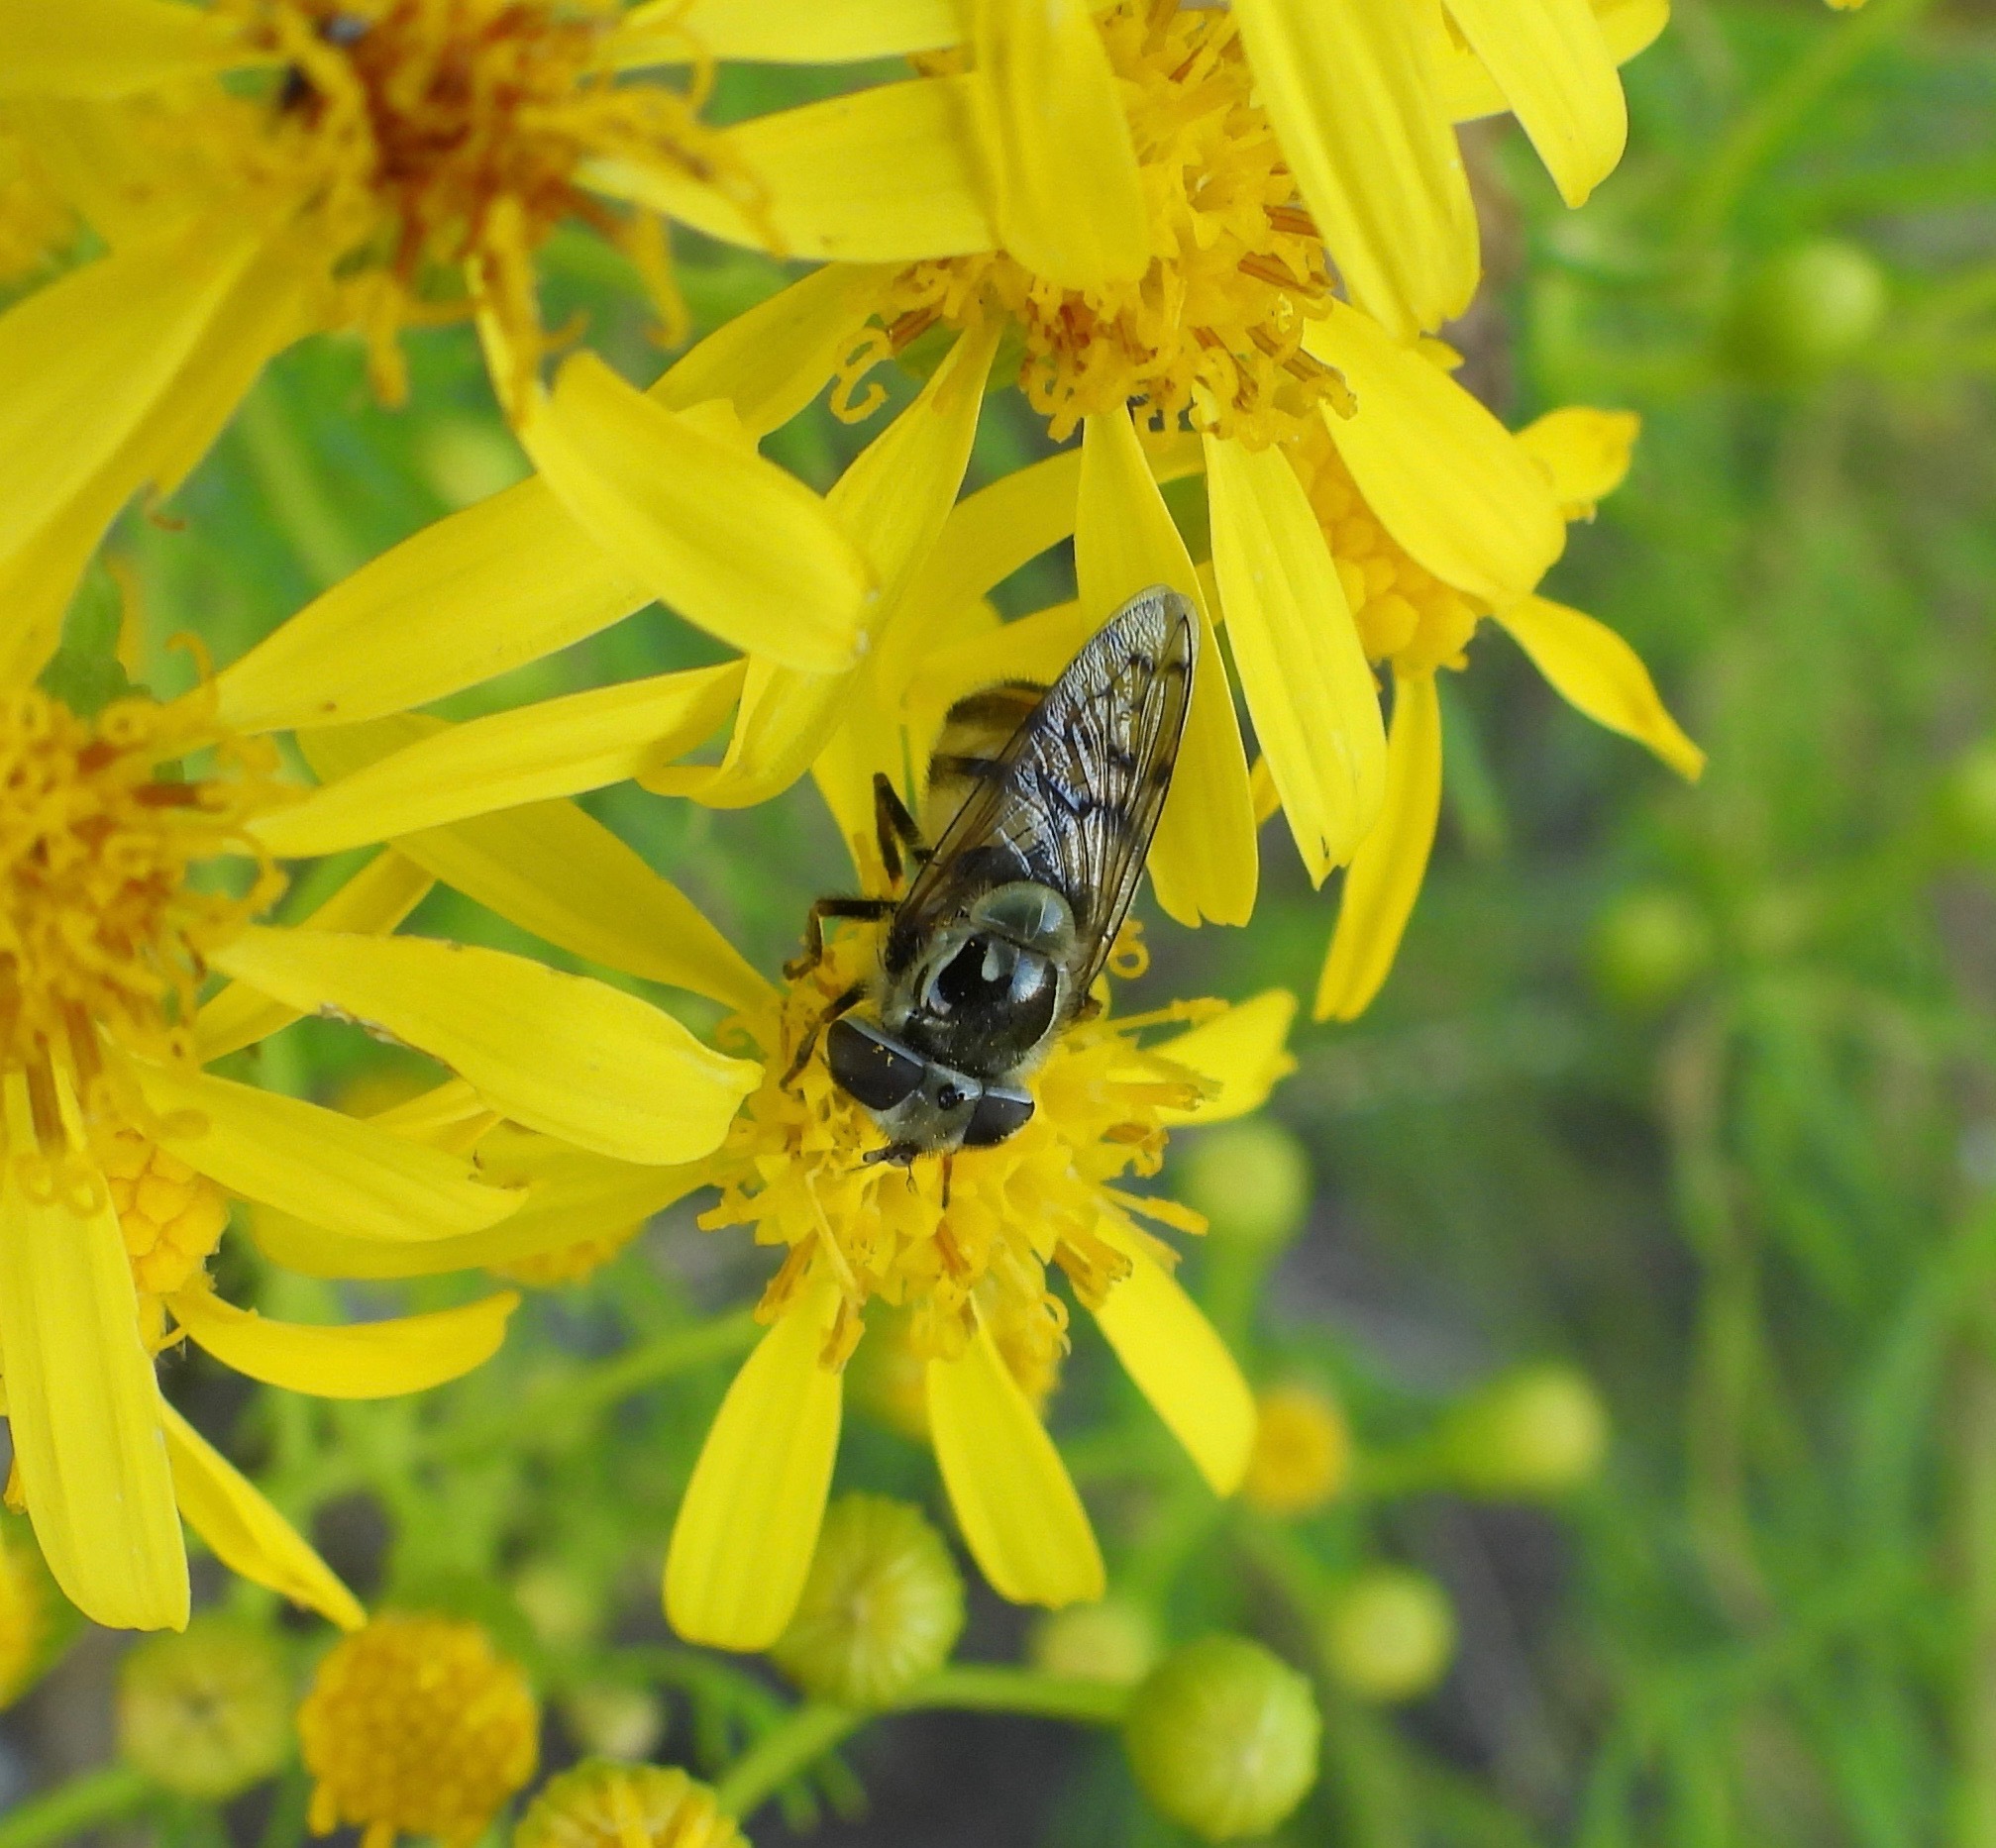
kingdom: Animalia
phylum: Arthropoda
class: Insecta
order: Diptera
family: Syrphidae
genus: Copestylum
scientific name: Copestylum satur
